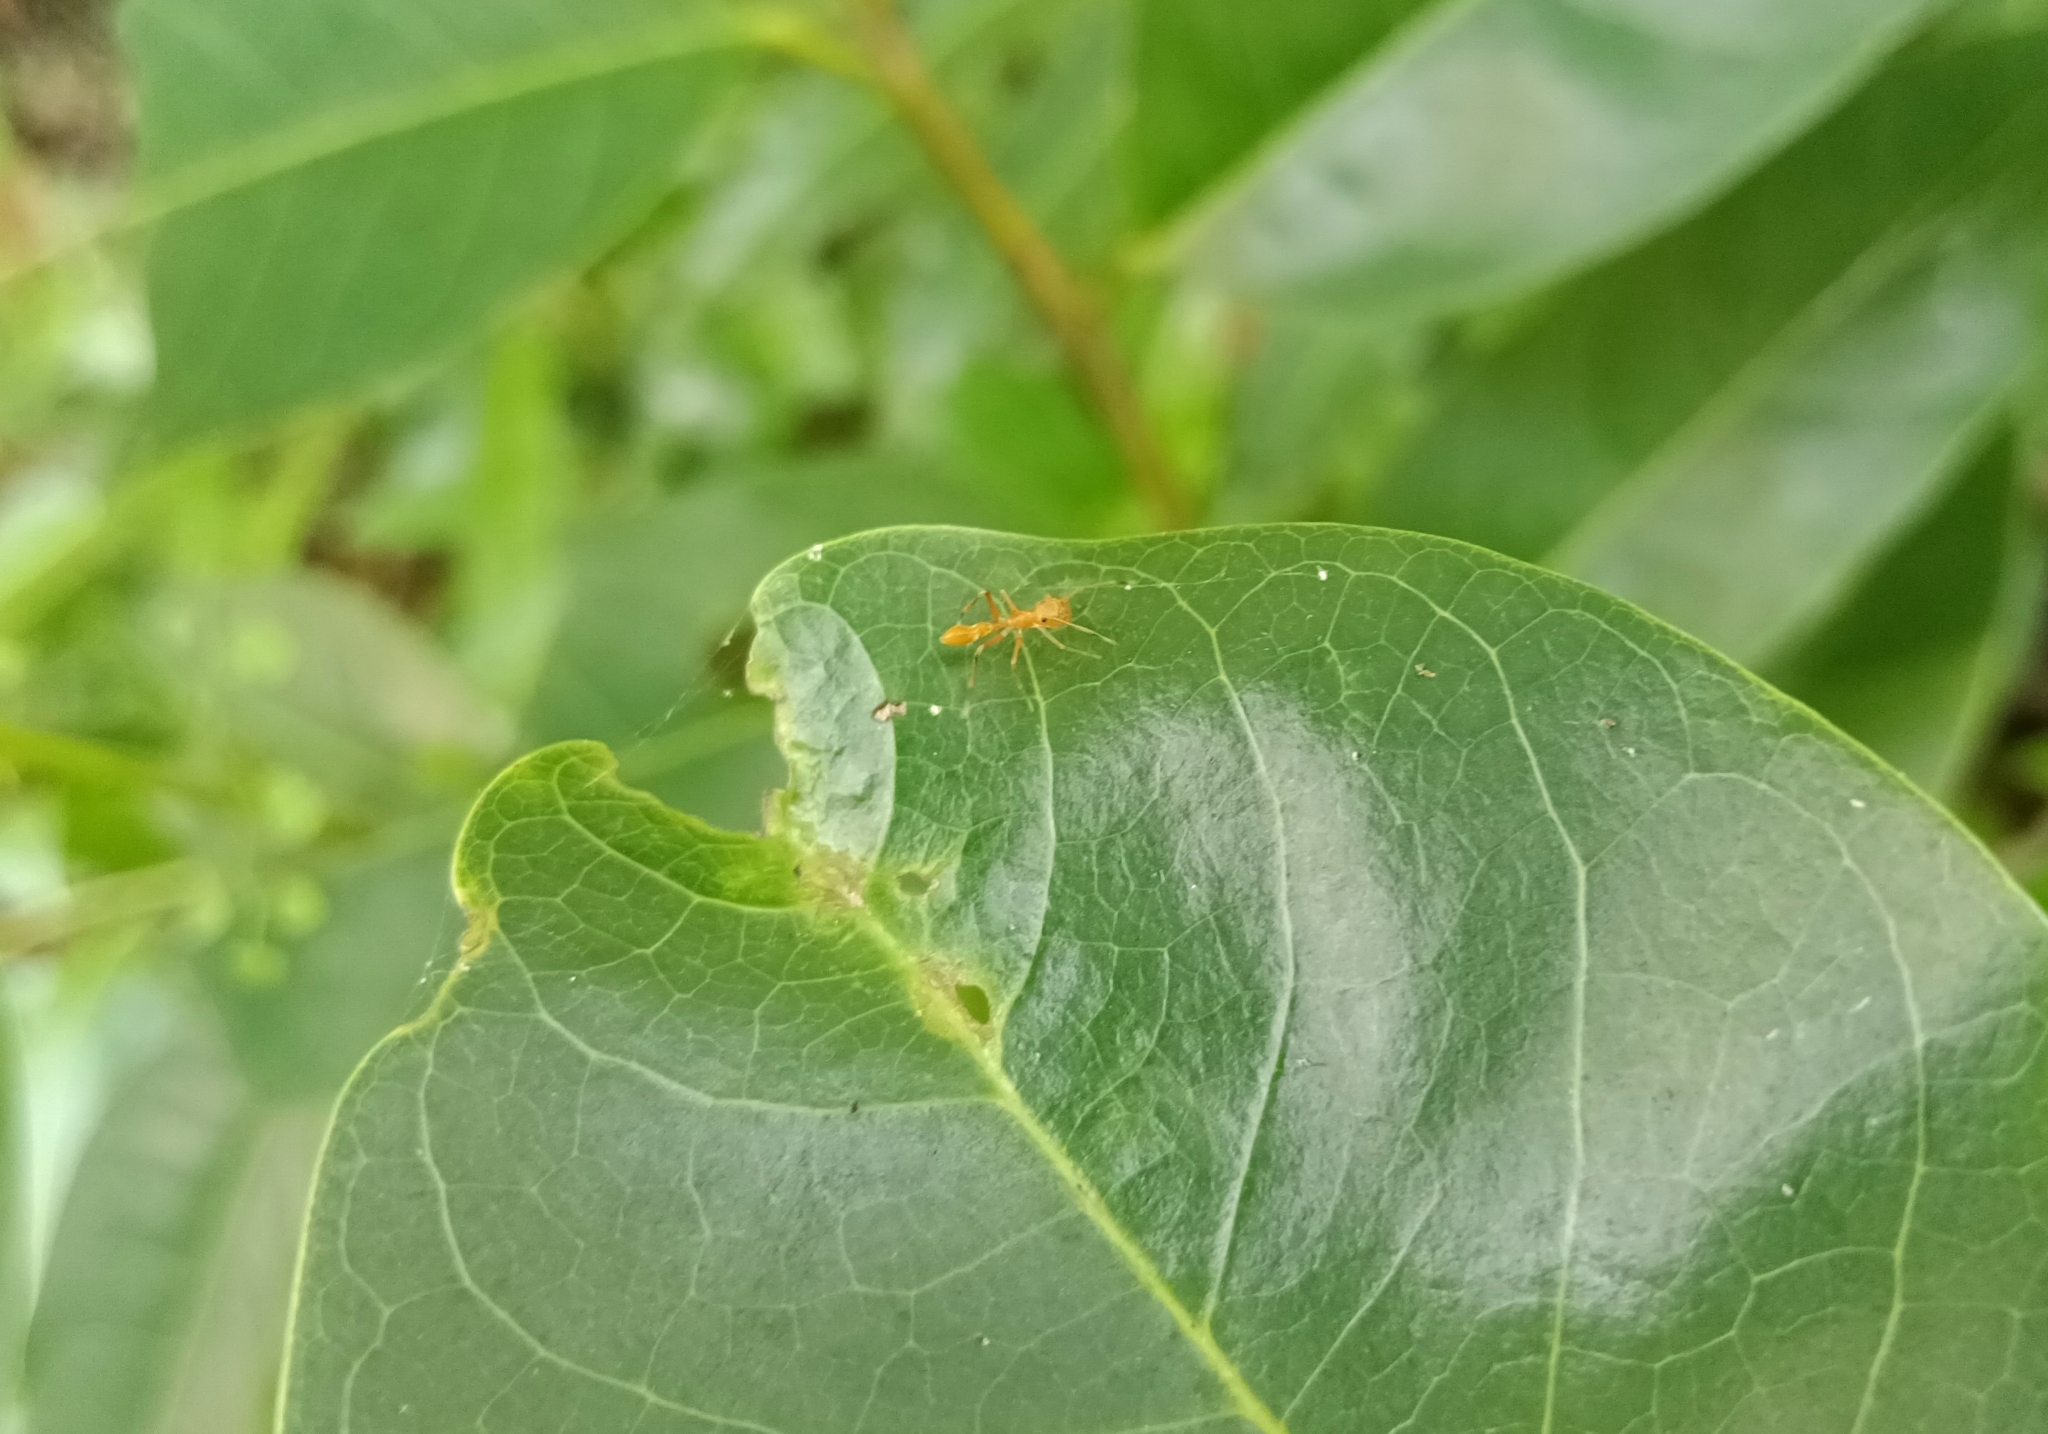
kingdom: Animalia
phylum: Arthropoda
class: Arachnida
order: Araneae
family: Salticidae
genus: Myrmaplata
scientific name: Myrmaplata plataleoides
